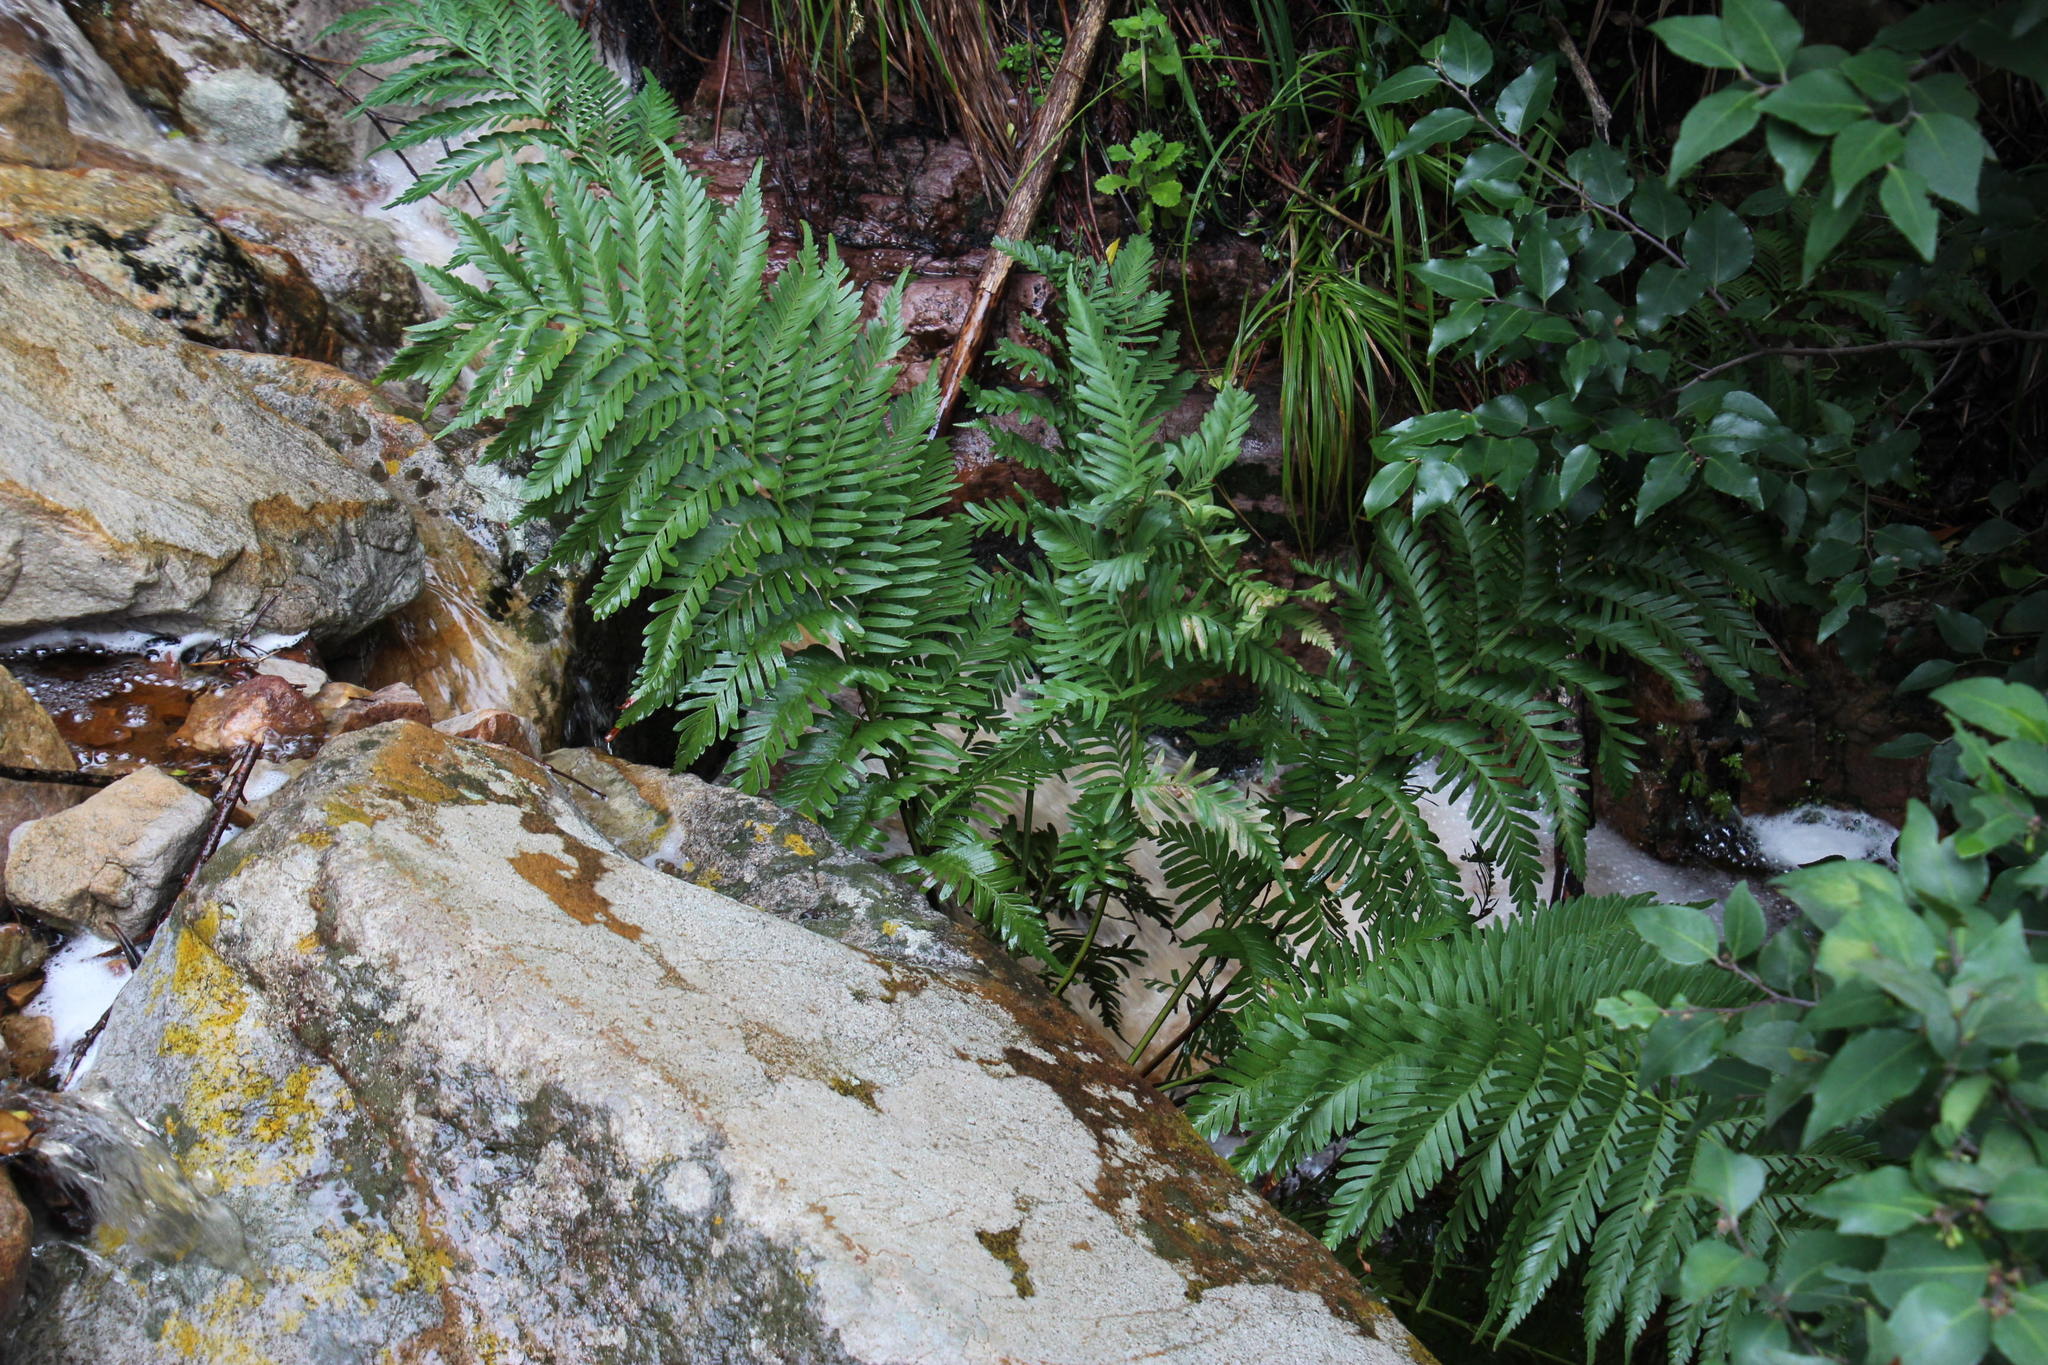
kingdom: Plantae
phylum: Tracheophyta
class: Polypodiopsida
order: Osmundales
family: Osmundaceae
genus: Todea
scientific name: Todea barbara
